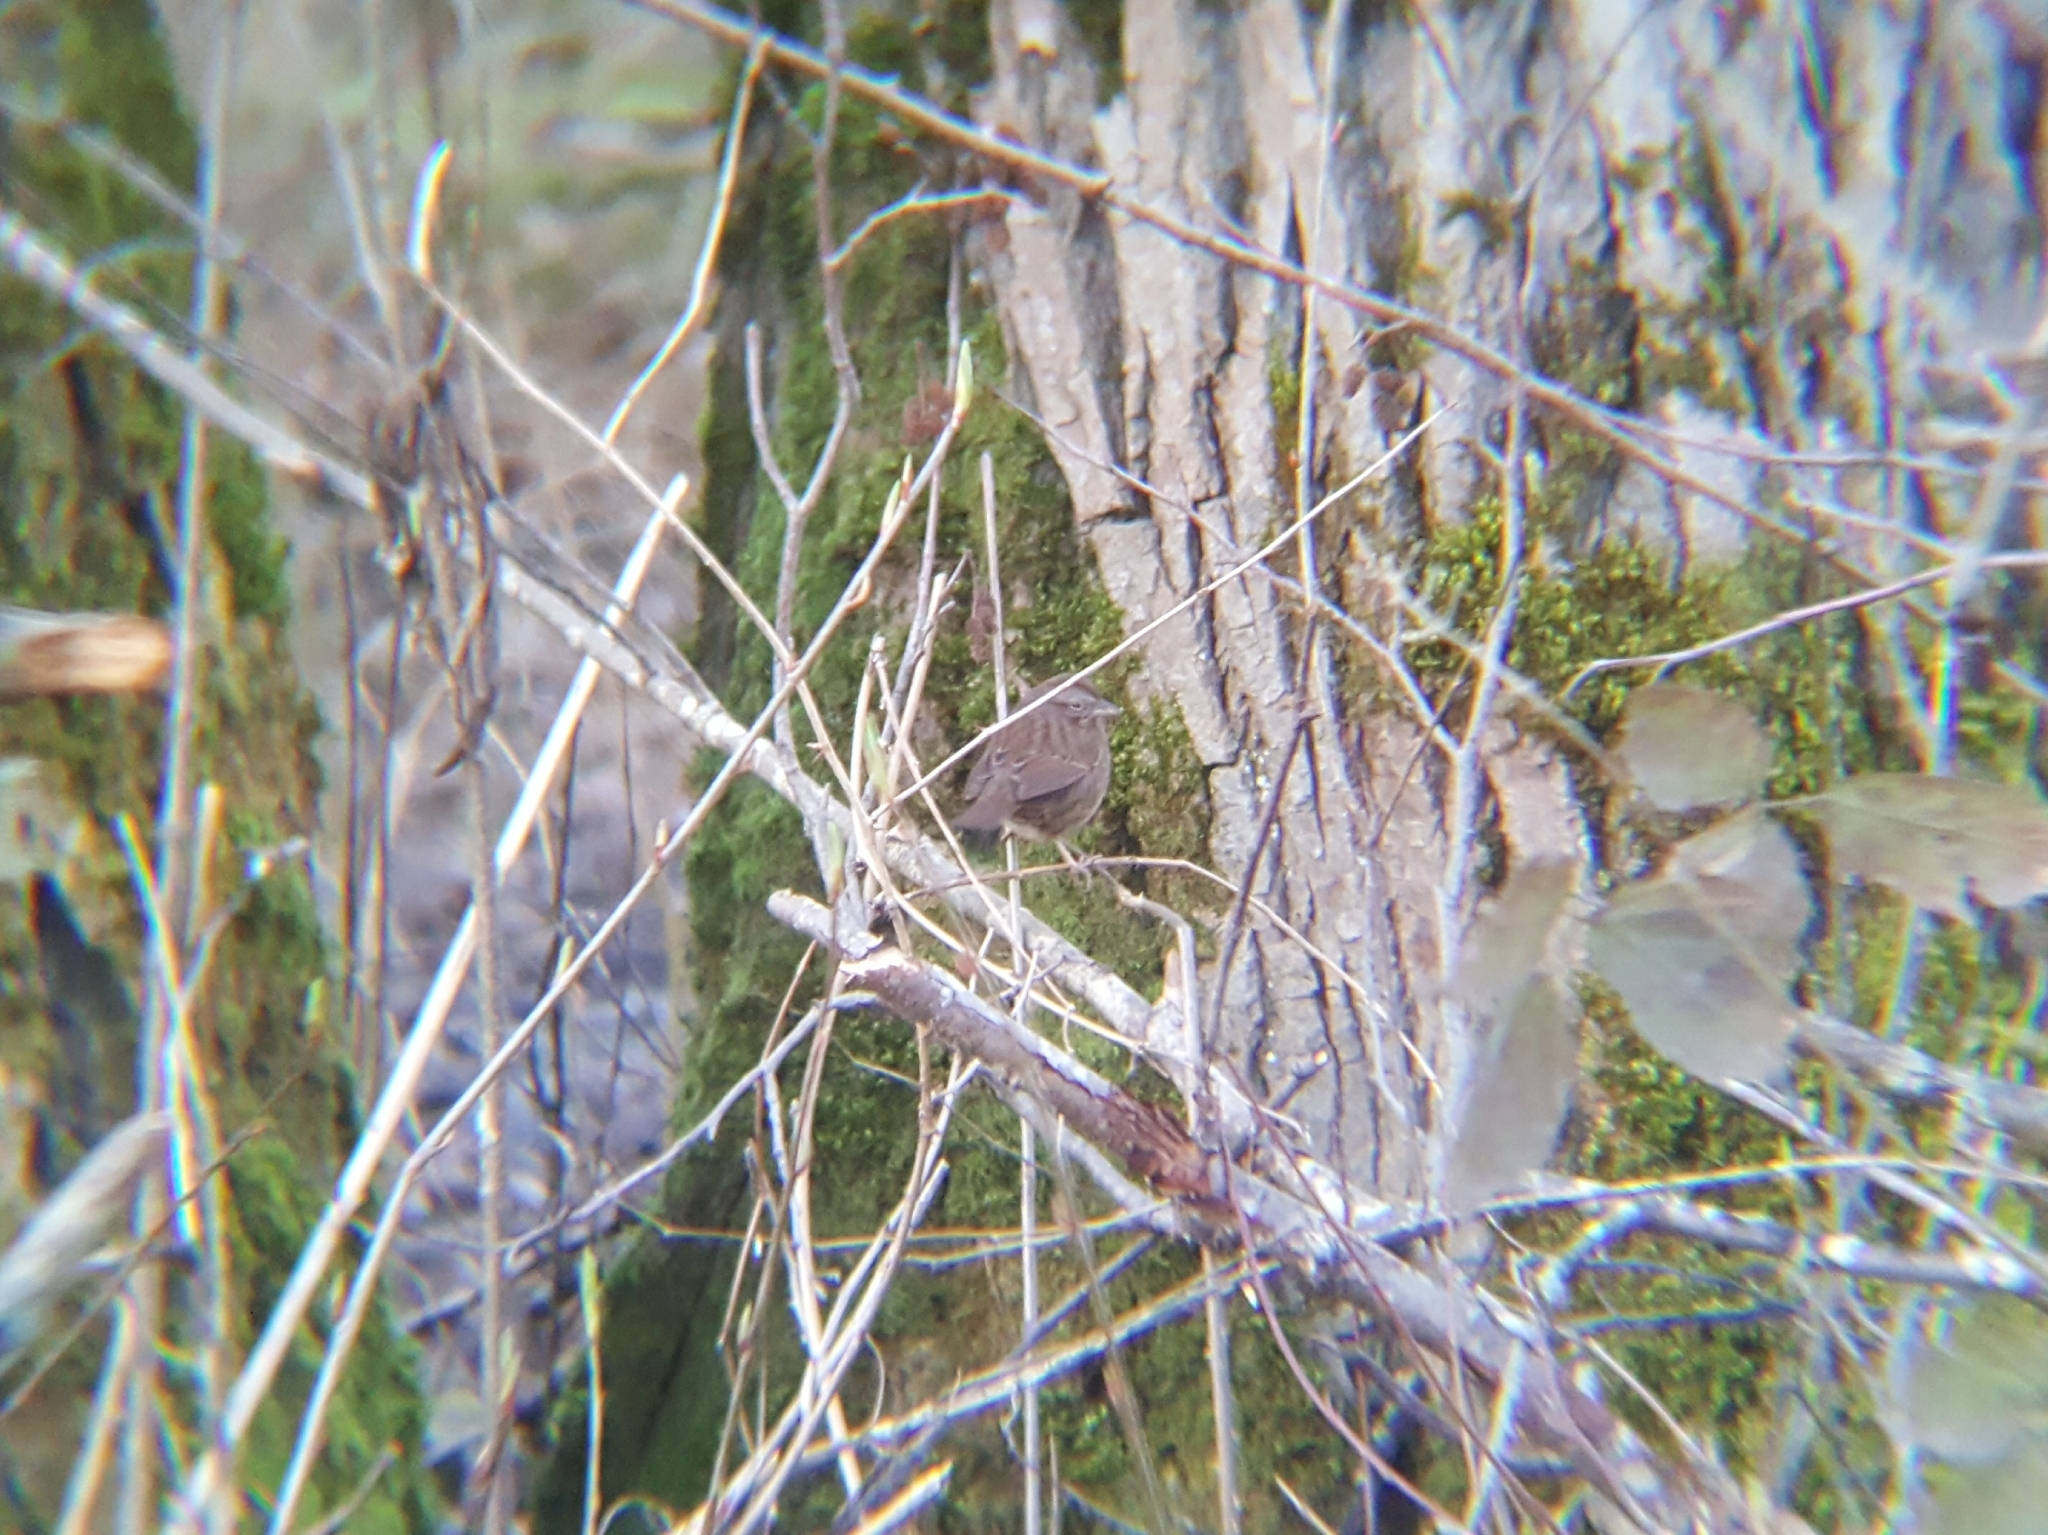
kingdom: Animalia
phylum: Chordata
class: Aves
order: Passeriformes
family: Passerellidae
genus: Melospiza
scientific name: Melospiza melodia
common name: Song sparrow
